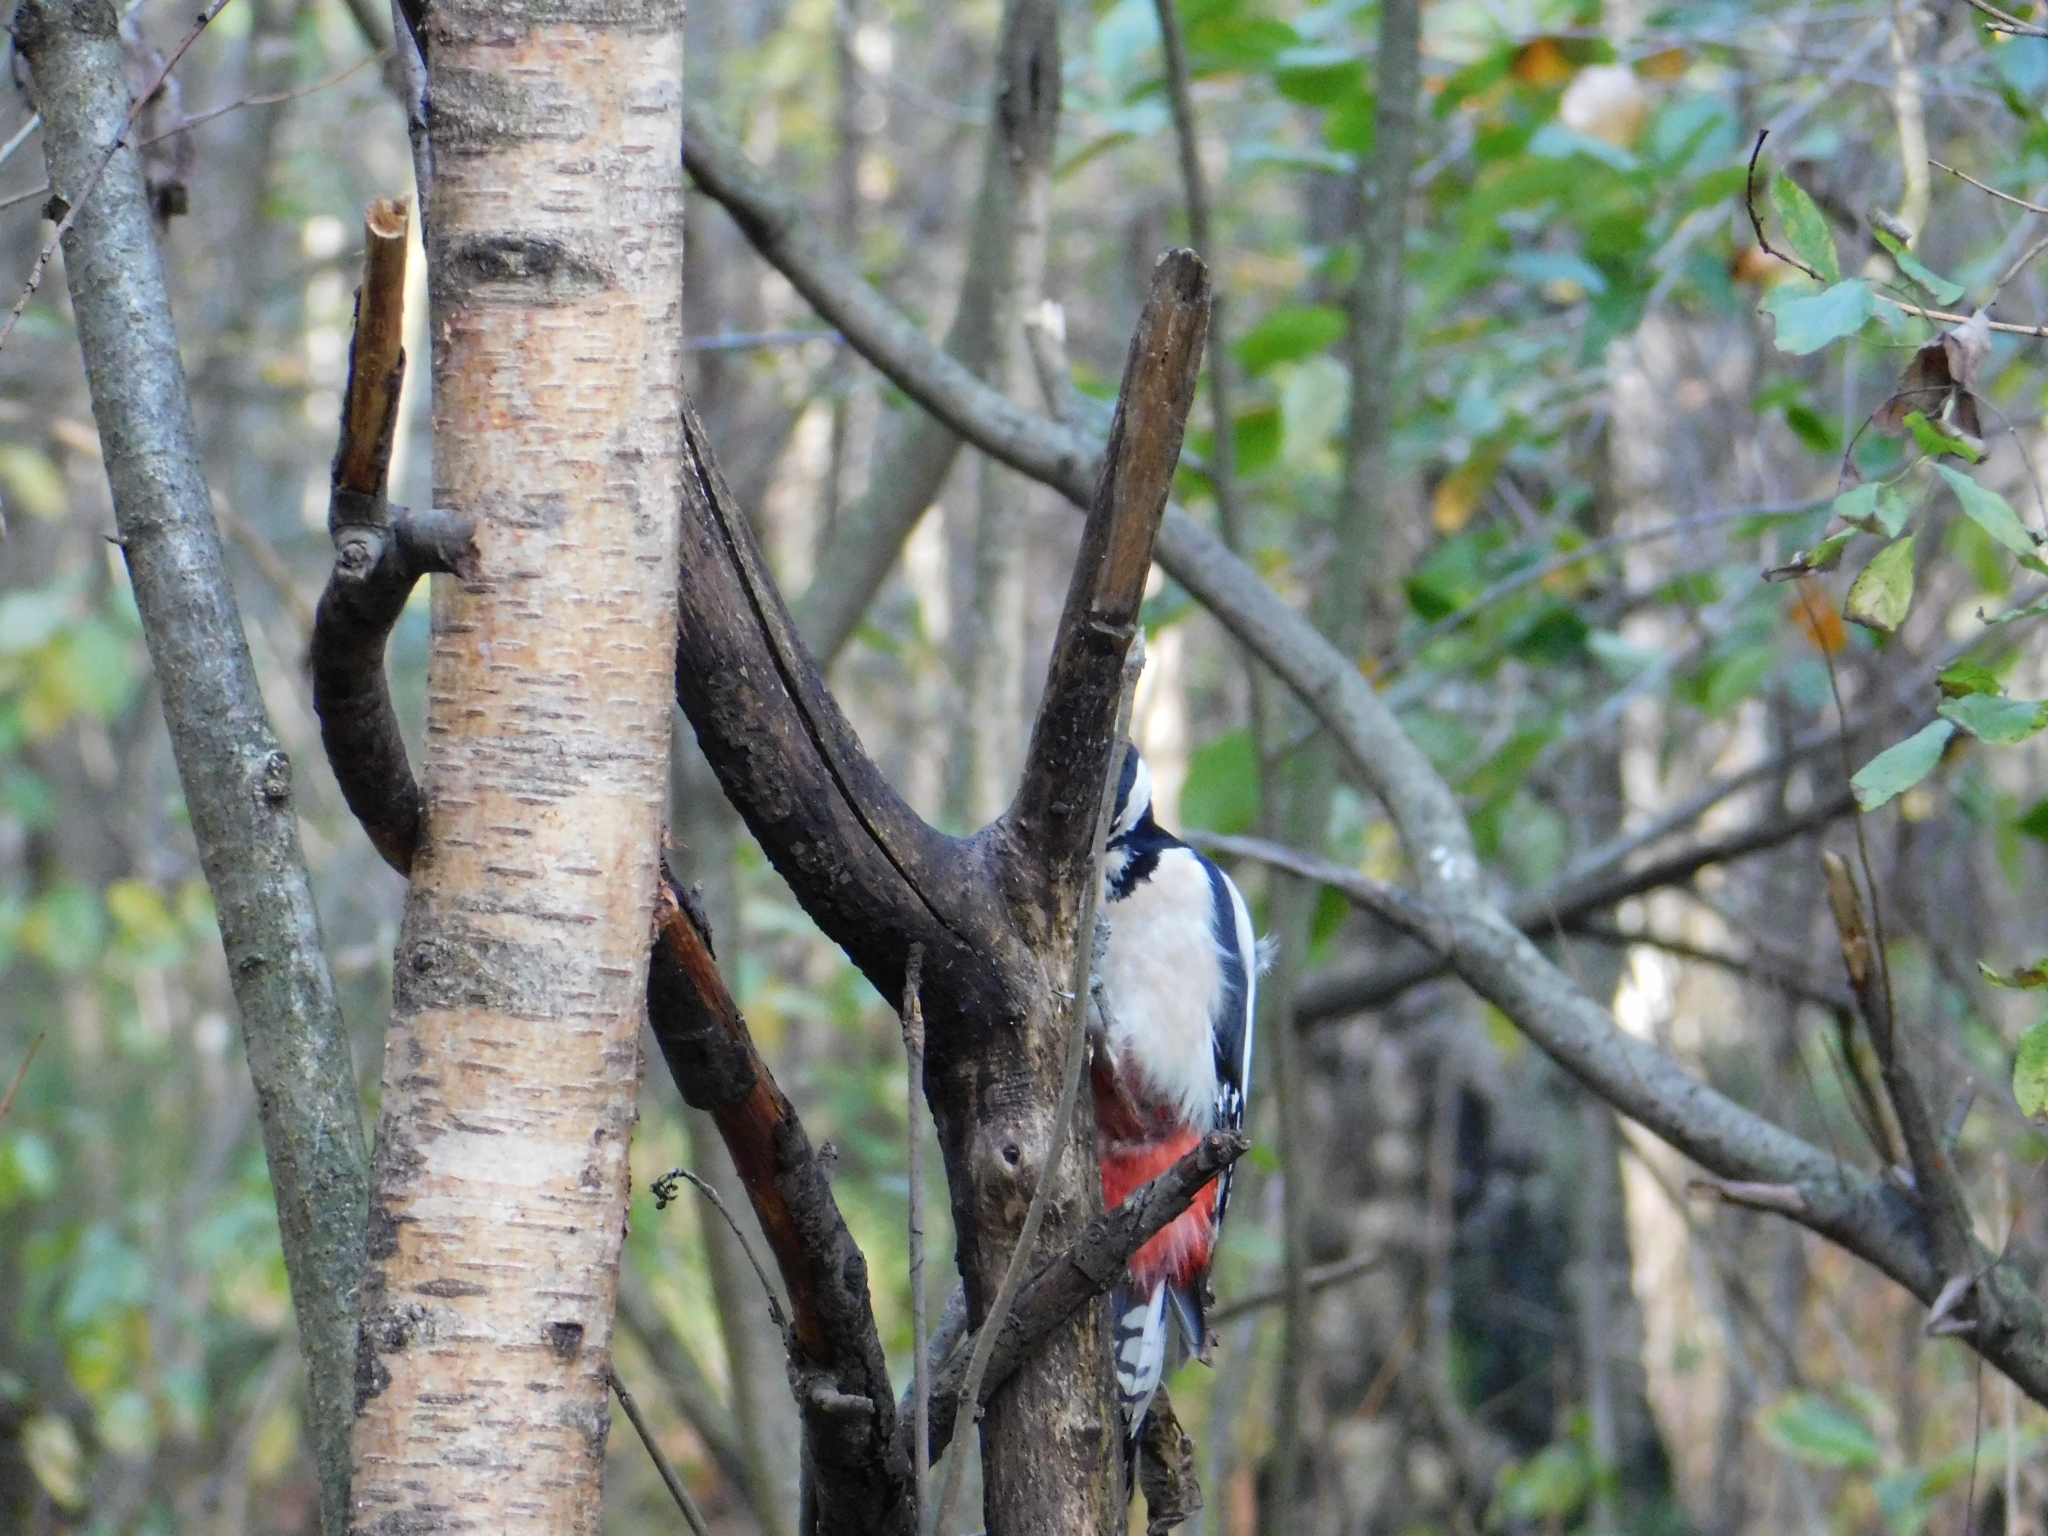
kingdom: Animalia
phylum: Chordata
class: Aves
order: Piciformes
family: Picidae
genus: Dendrocopos
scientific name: Dendrocopos major
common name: Great spotted woodpecker
